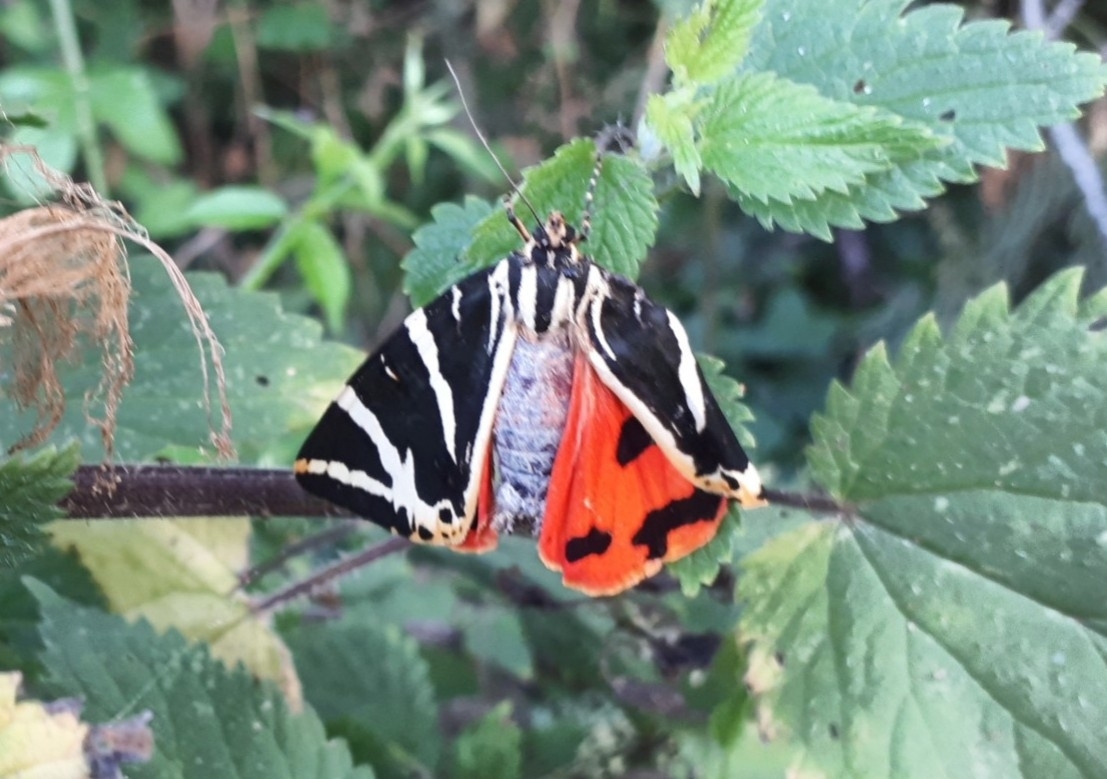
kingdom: Animalia
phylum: Arthropoda
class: Insecta
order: Lepidoptera
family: Erebidae
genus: Euplagia
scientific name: Euplagia quadripunctaria
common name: Jersey tiger
